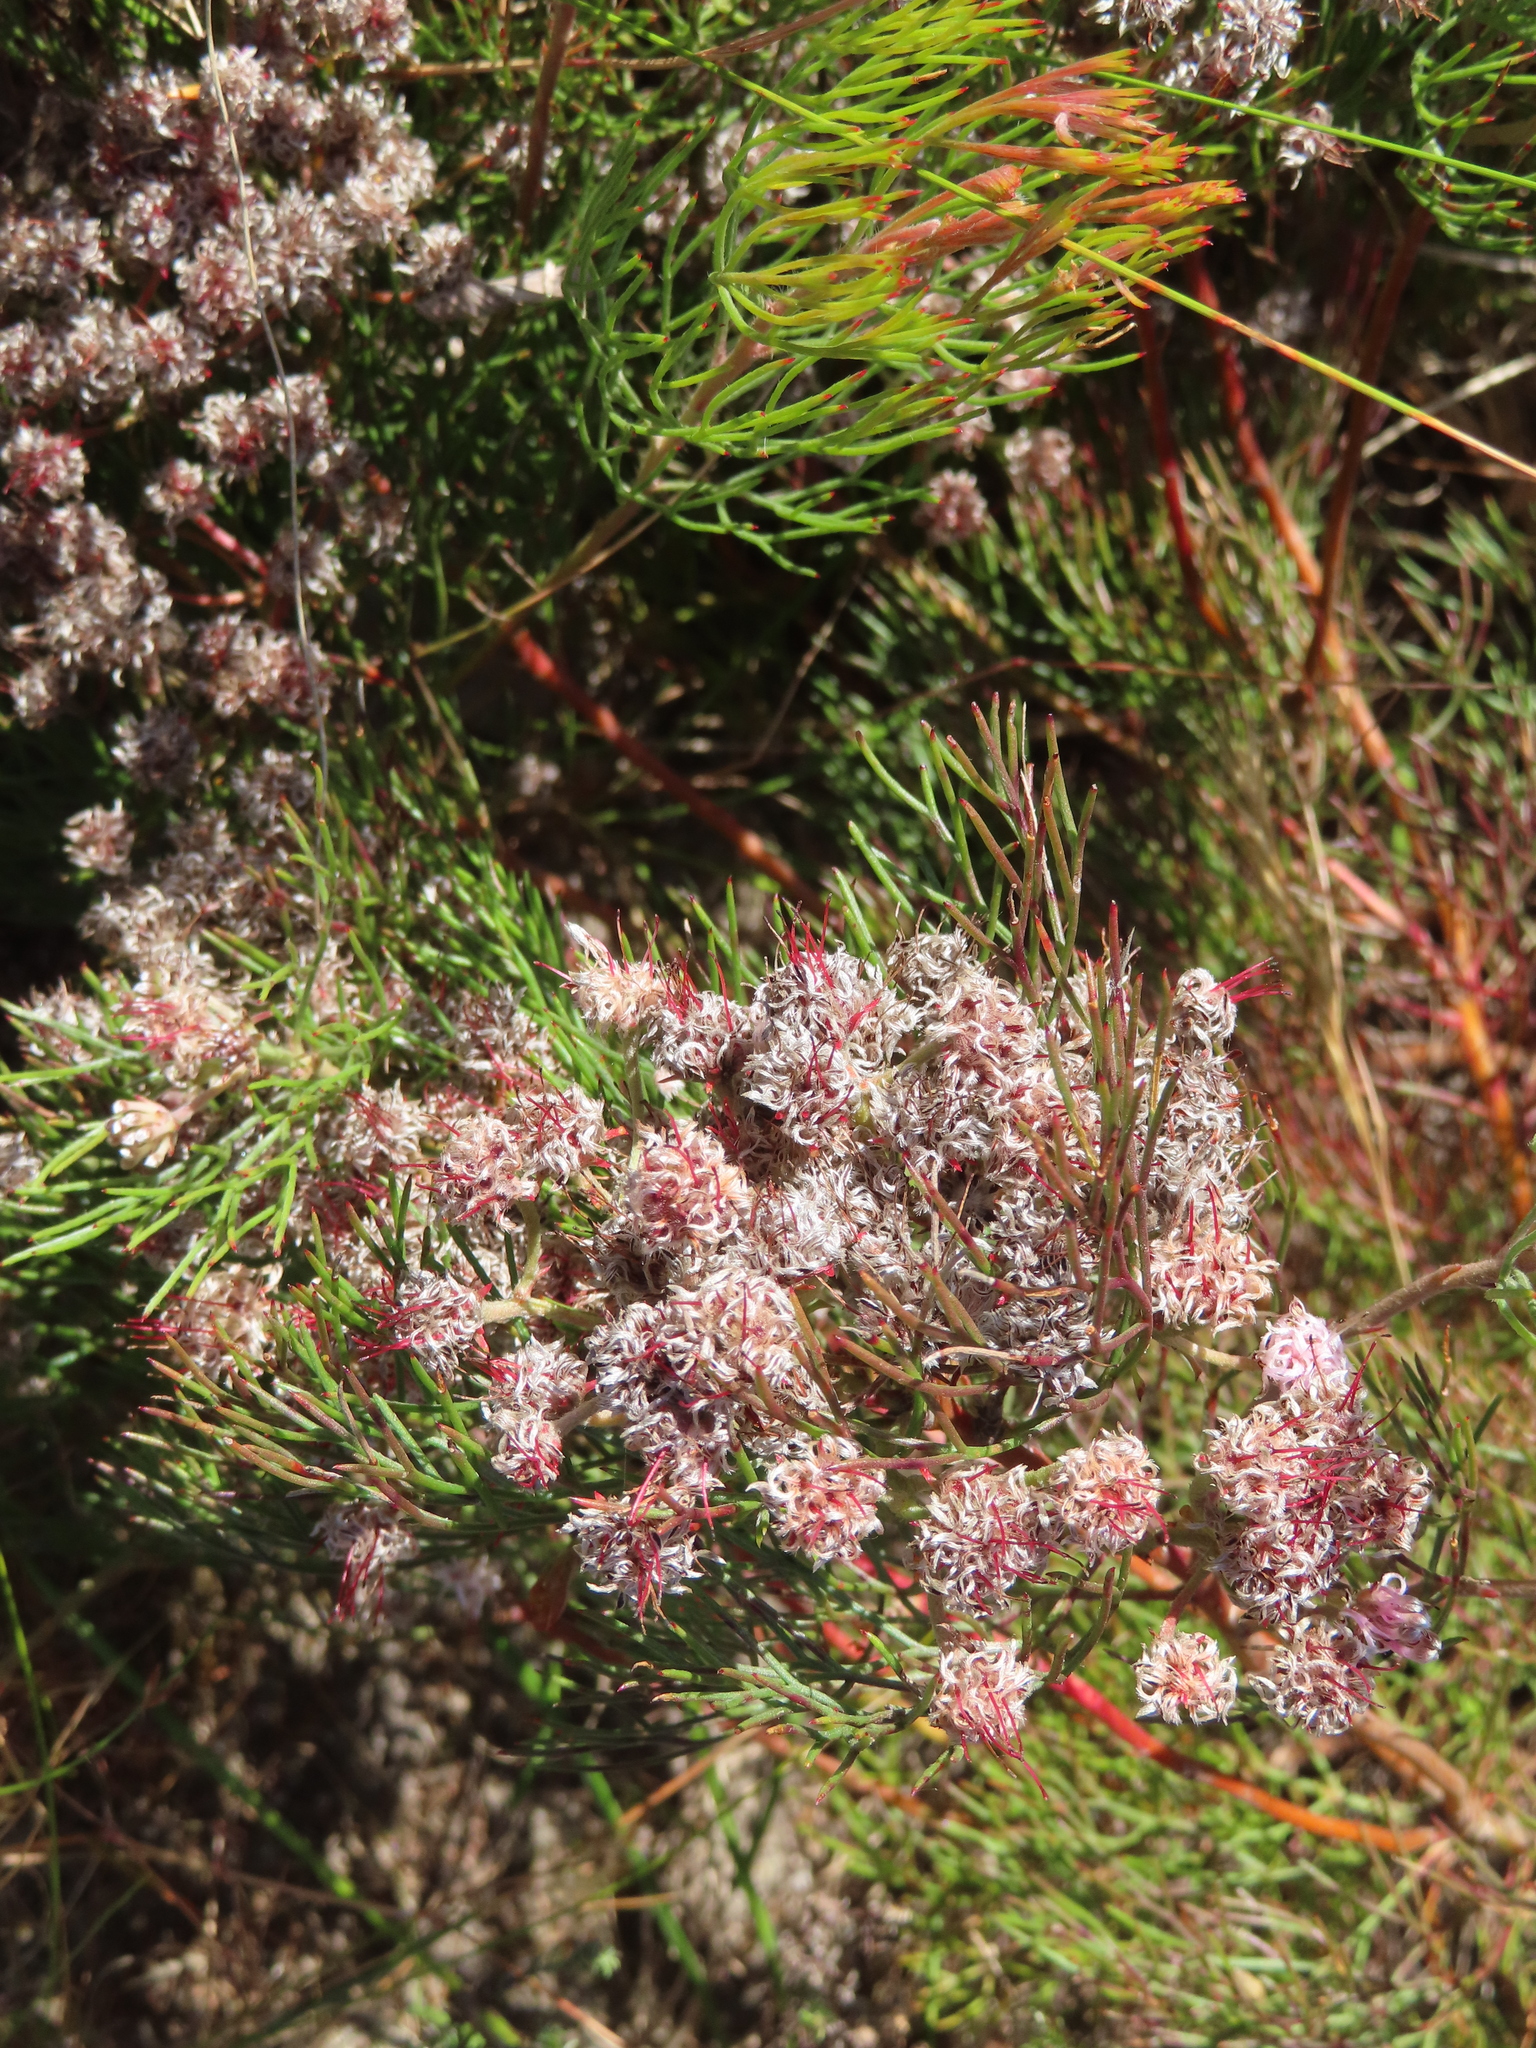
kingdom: Plantae
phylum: Tracheophyta
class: Magnoliopsida
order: Proteales
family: Proteaceae
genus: Serruria
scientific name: Serruria fasciflora
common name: Common pin spiderhead
